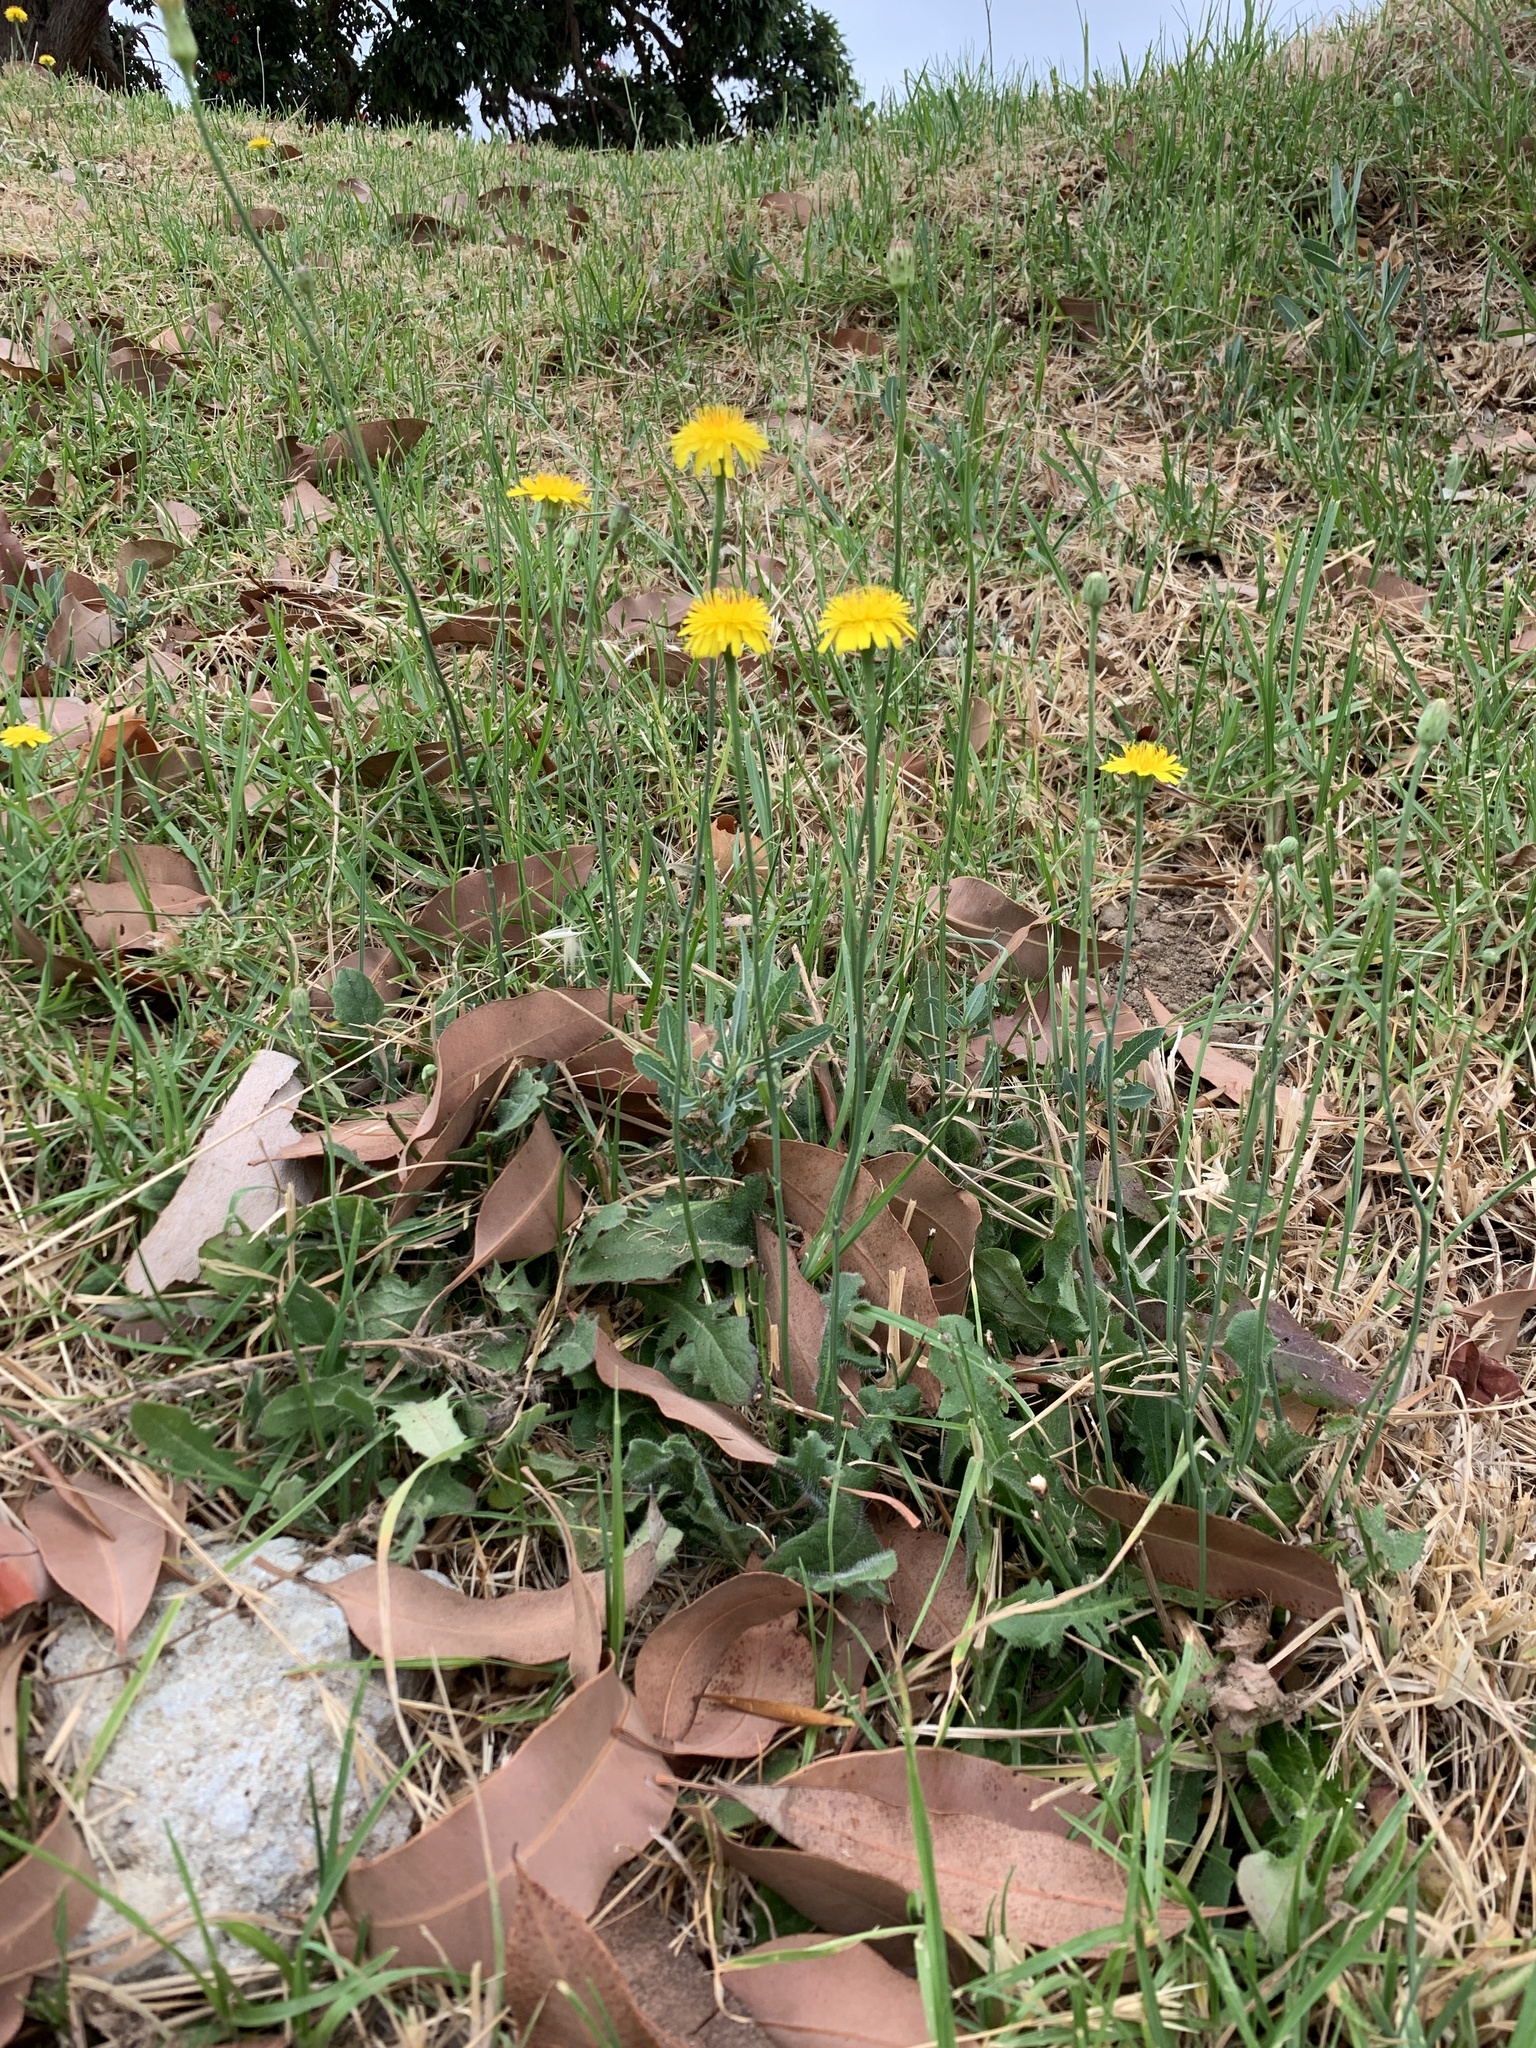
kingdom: Plantae
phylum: Tracheophyta
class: Magnoliopsida
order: Asterales
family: Asteraceae
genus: Hypochaeris
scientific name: Hypochaeris radicata
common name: Flatweed
